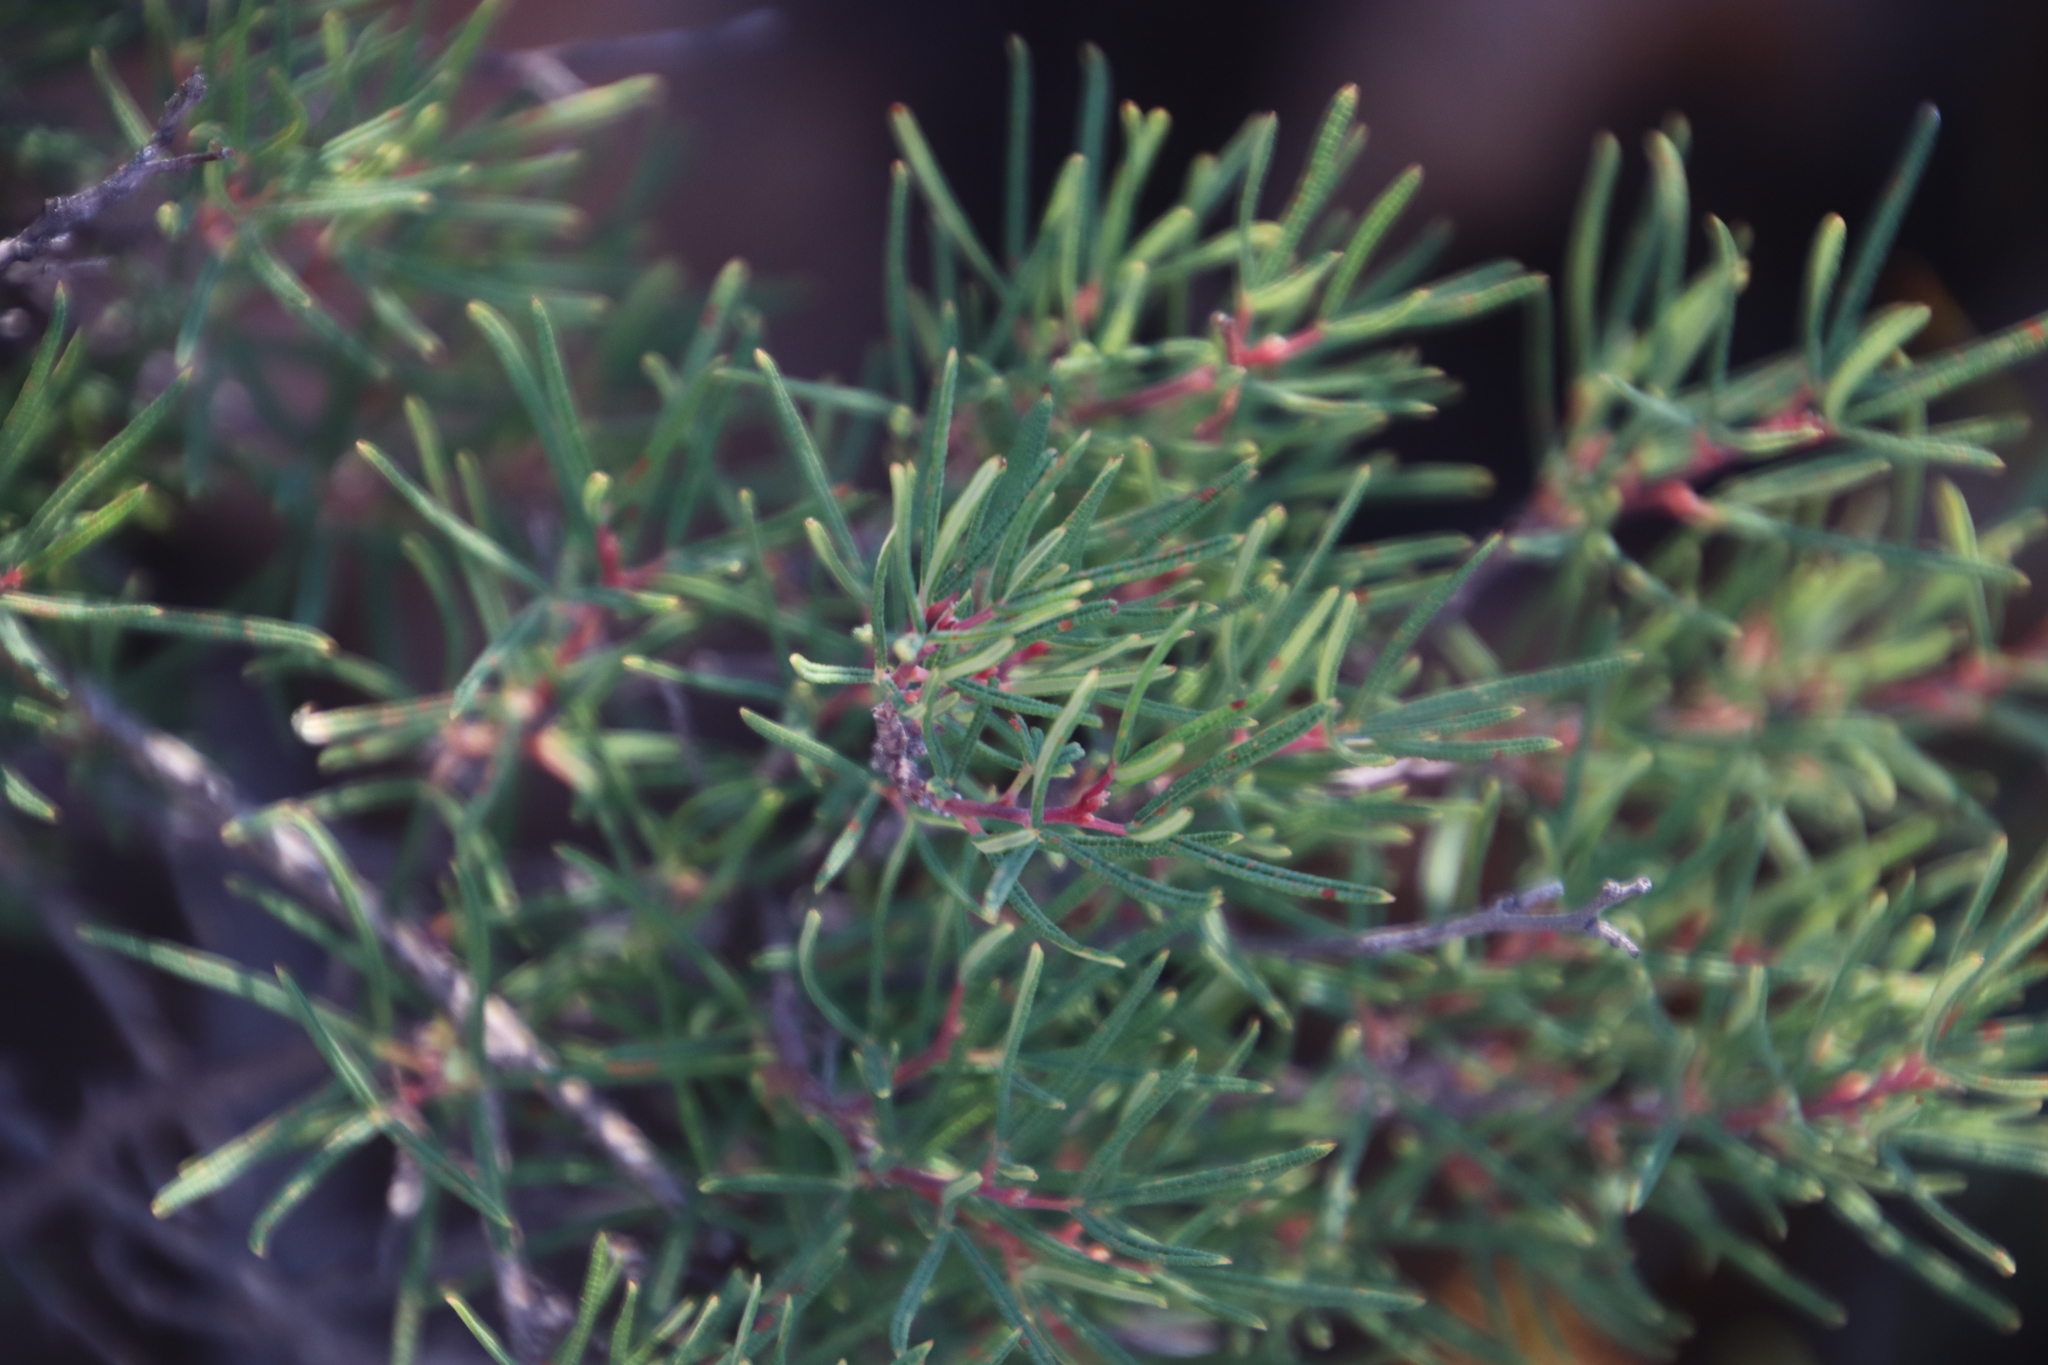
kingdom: Plantae
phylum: Tracheophyta
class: Magnoliopsida
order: Sapindales
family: Anacardiaceae
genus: Searsia
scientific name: Searsia rosmarinifolia
